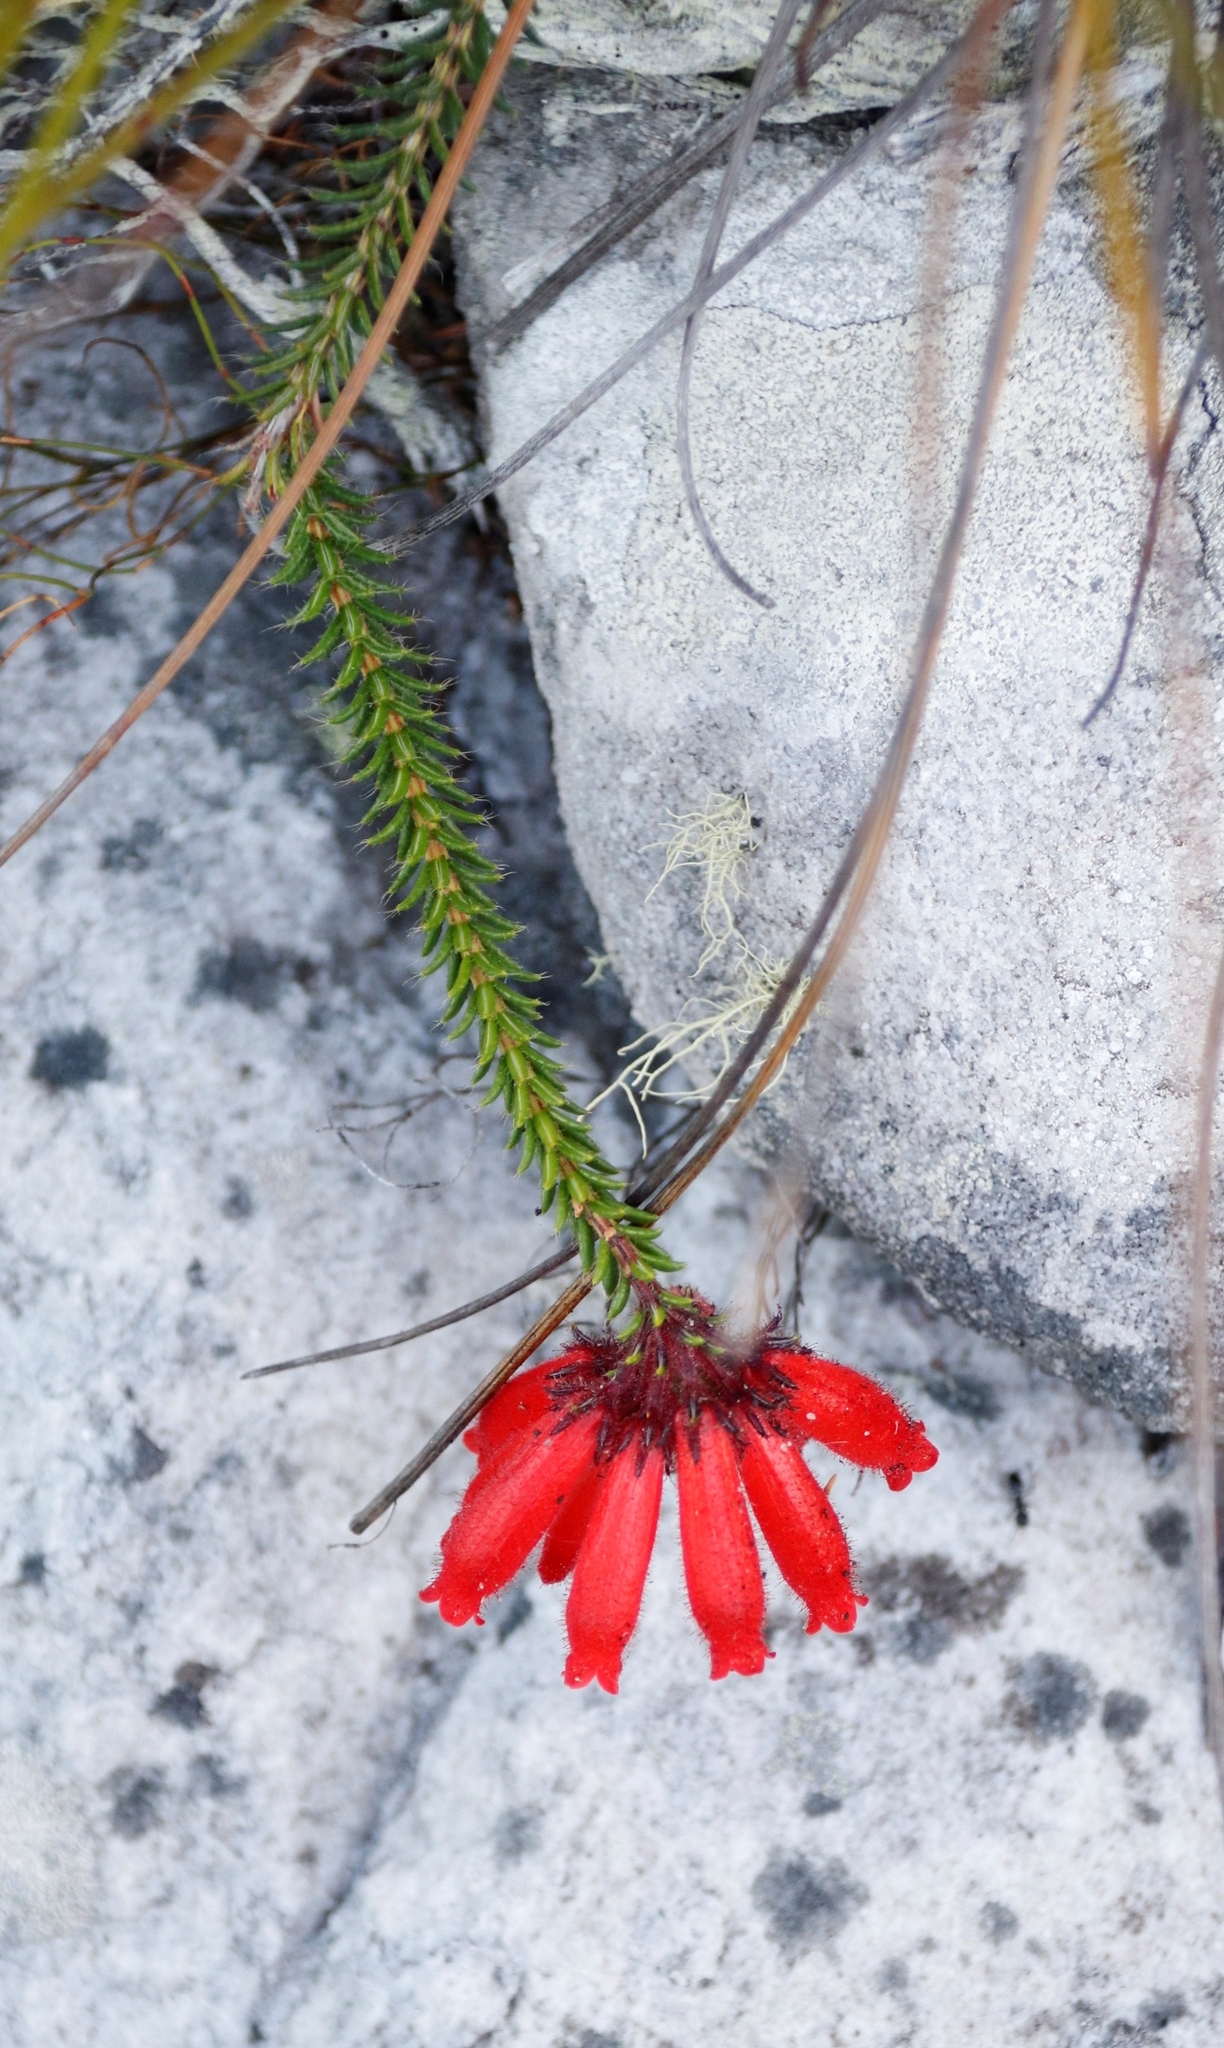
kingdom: Plantae
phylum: Tracheophyta
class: Magnoliopsida
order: Ericales
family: Ericaceae
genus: Erica
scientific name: Erica cerinthoides
